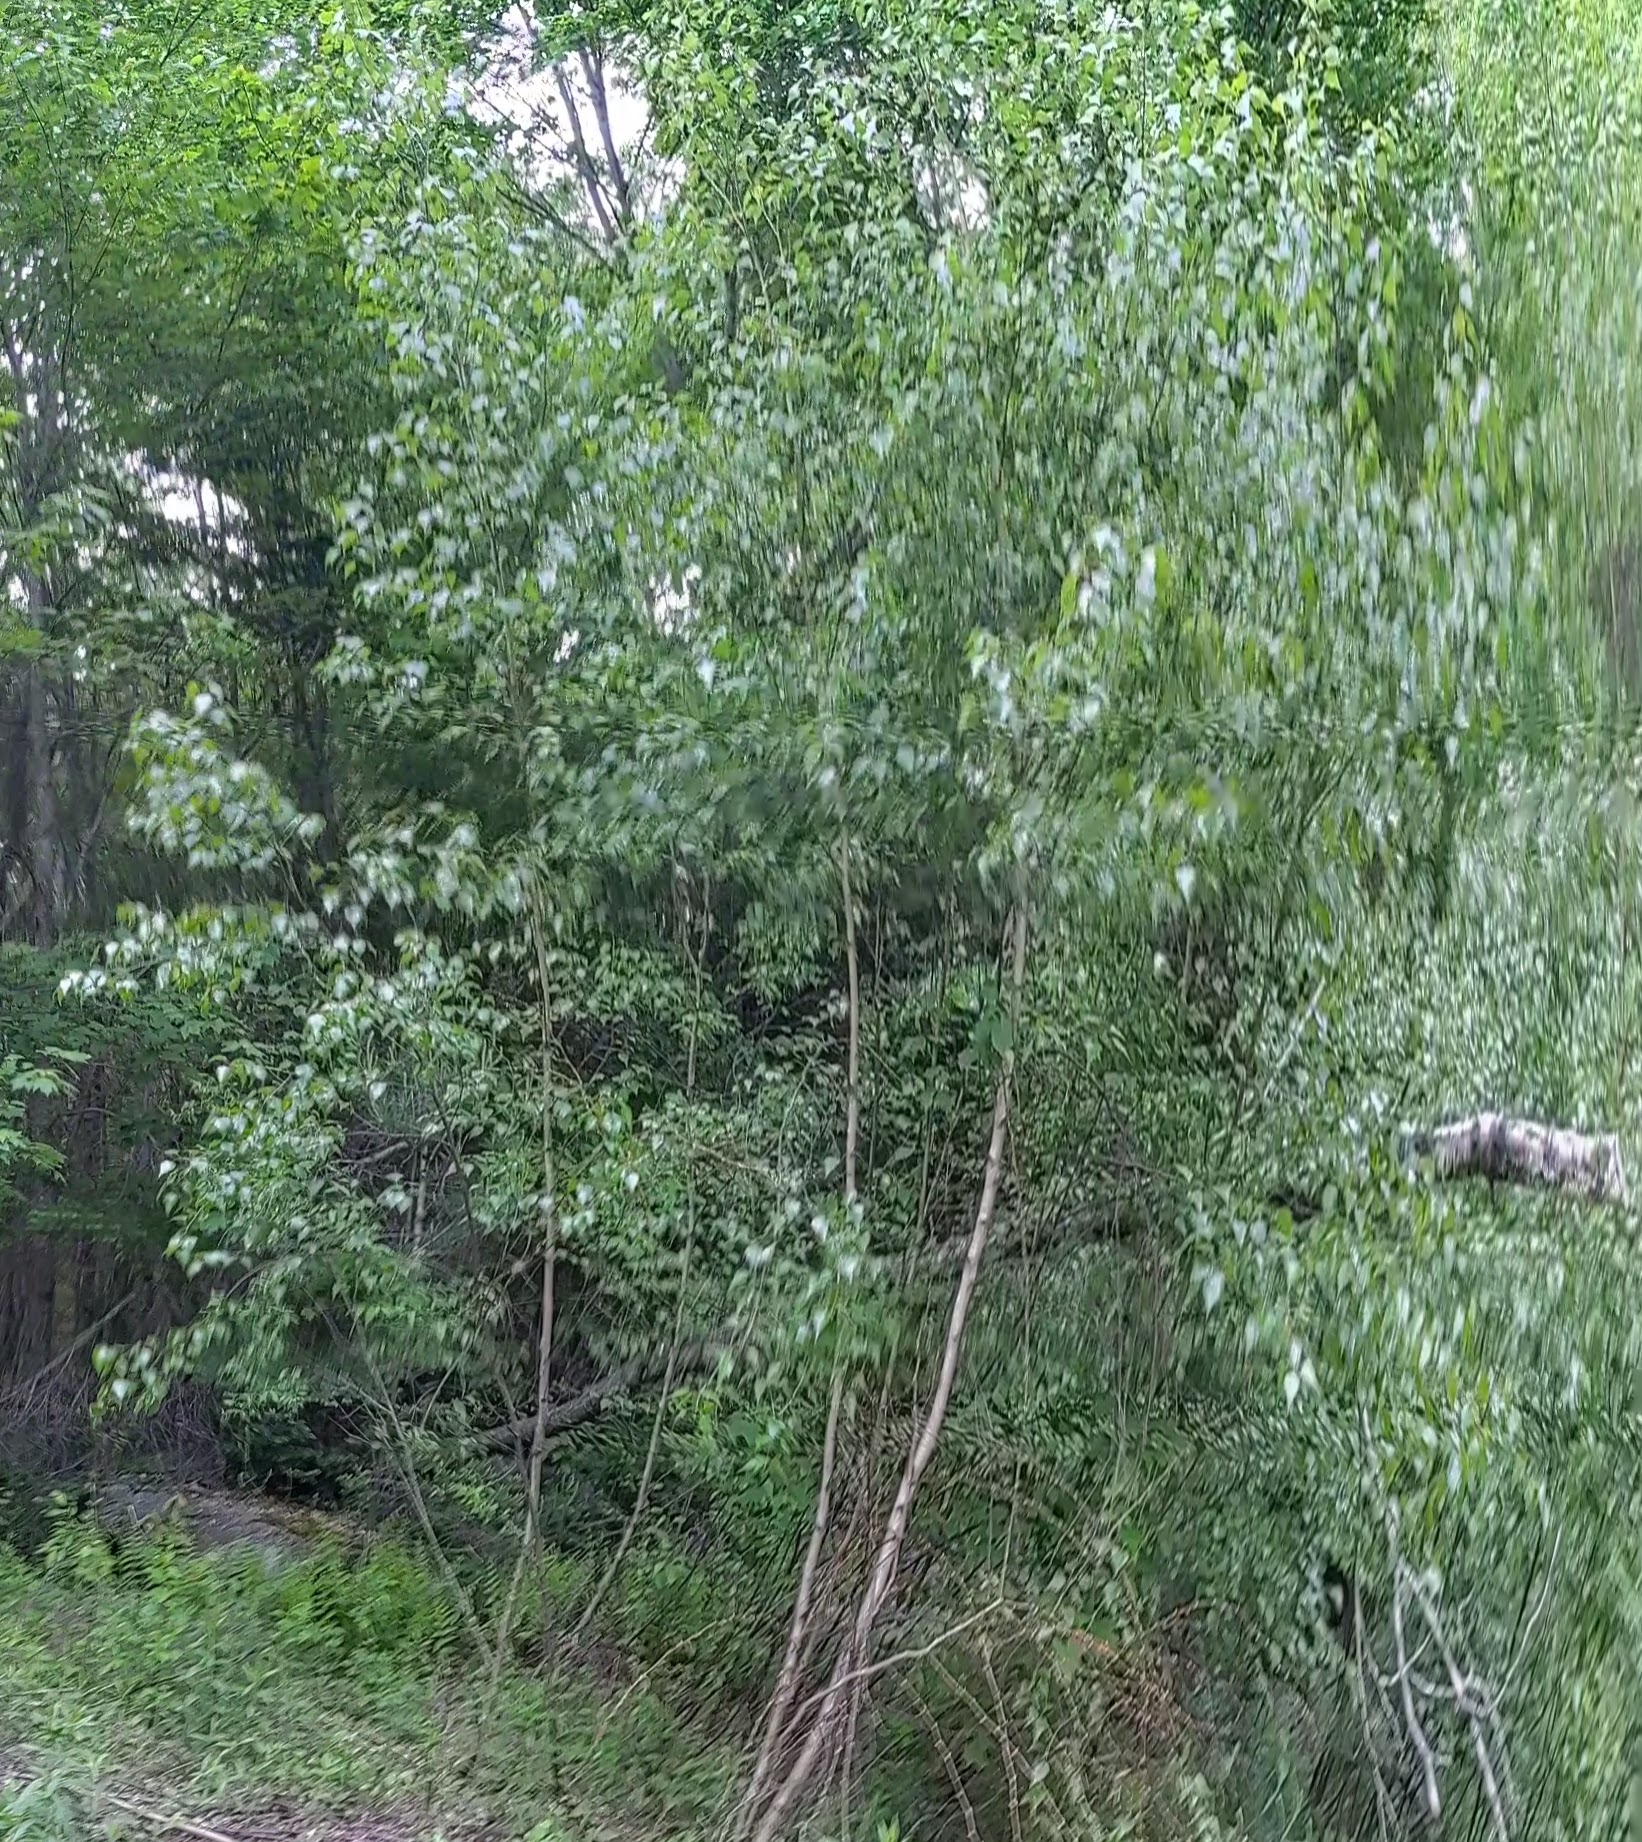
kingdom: Plantae
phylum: Tracheophyta
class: Magnoliopsida
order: Fagales
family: Betulaceae
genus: Betula
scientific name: Betula populifolia
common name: Fire birch
